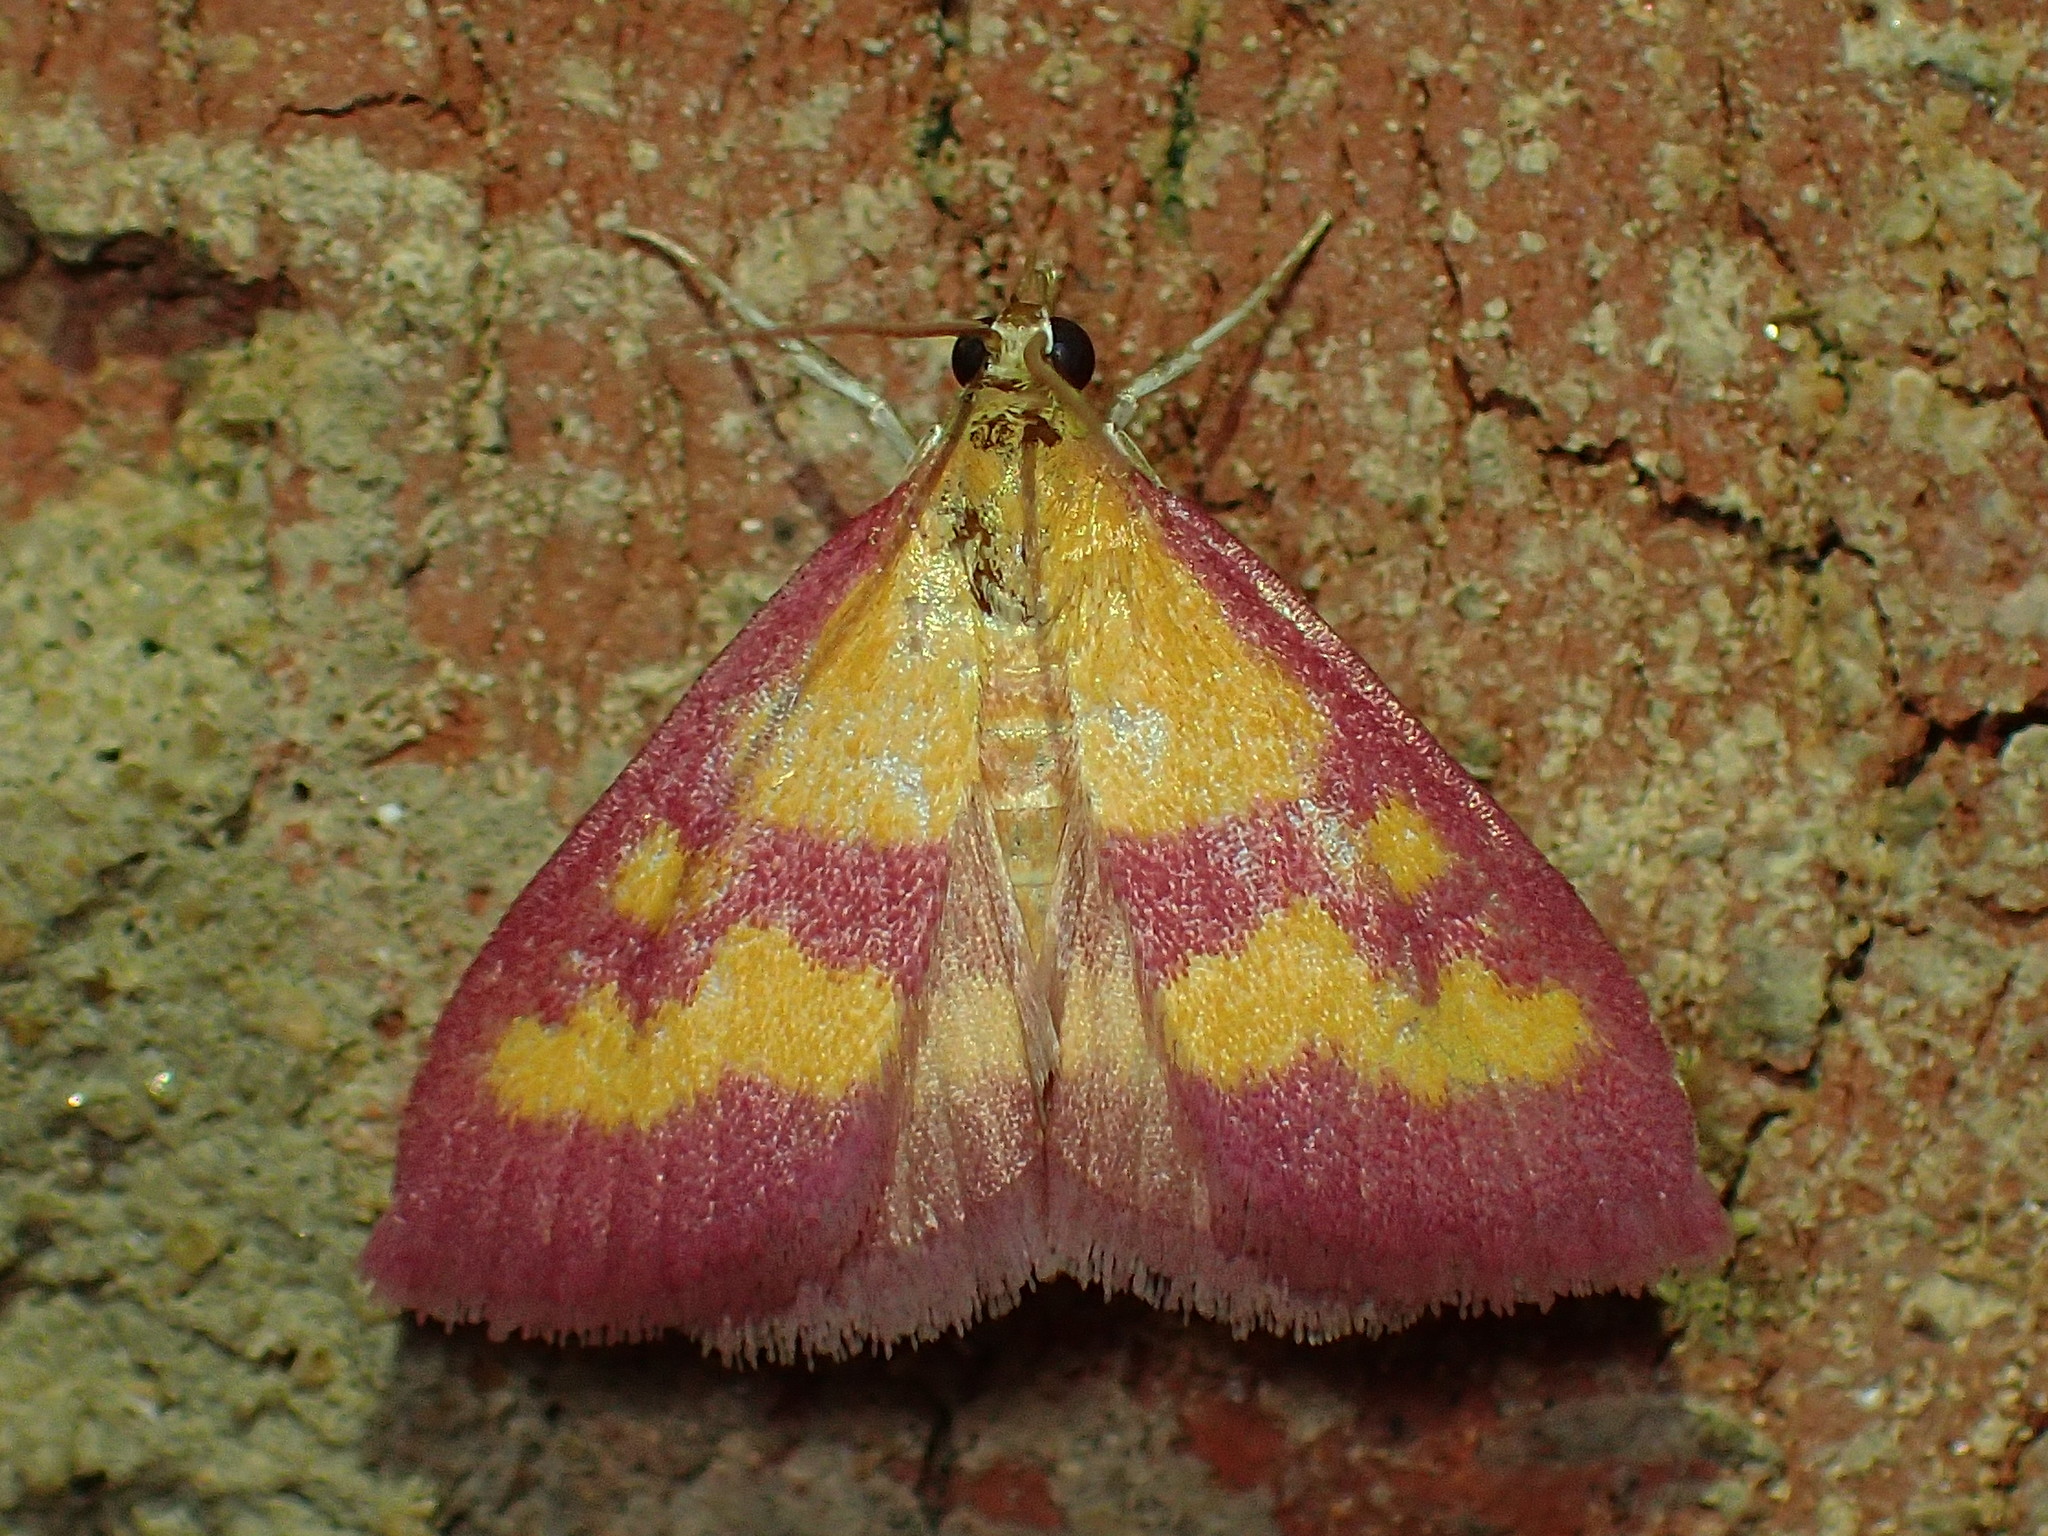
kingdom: Animalia
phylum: Arthropoda
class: Insecta
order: Lepidoptera
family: Crambidae
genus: Pyrausta
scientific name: Pyrausta laticlavia
